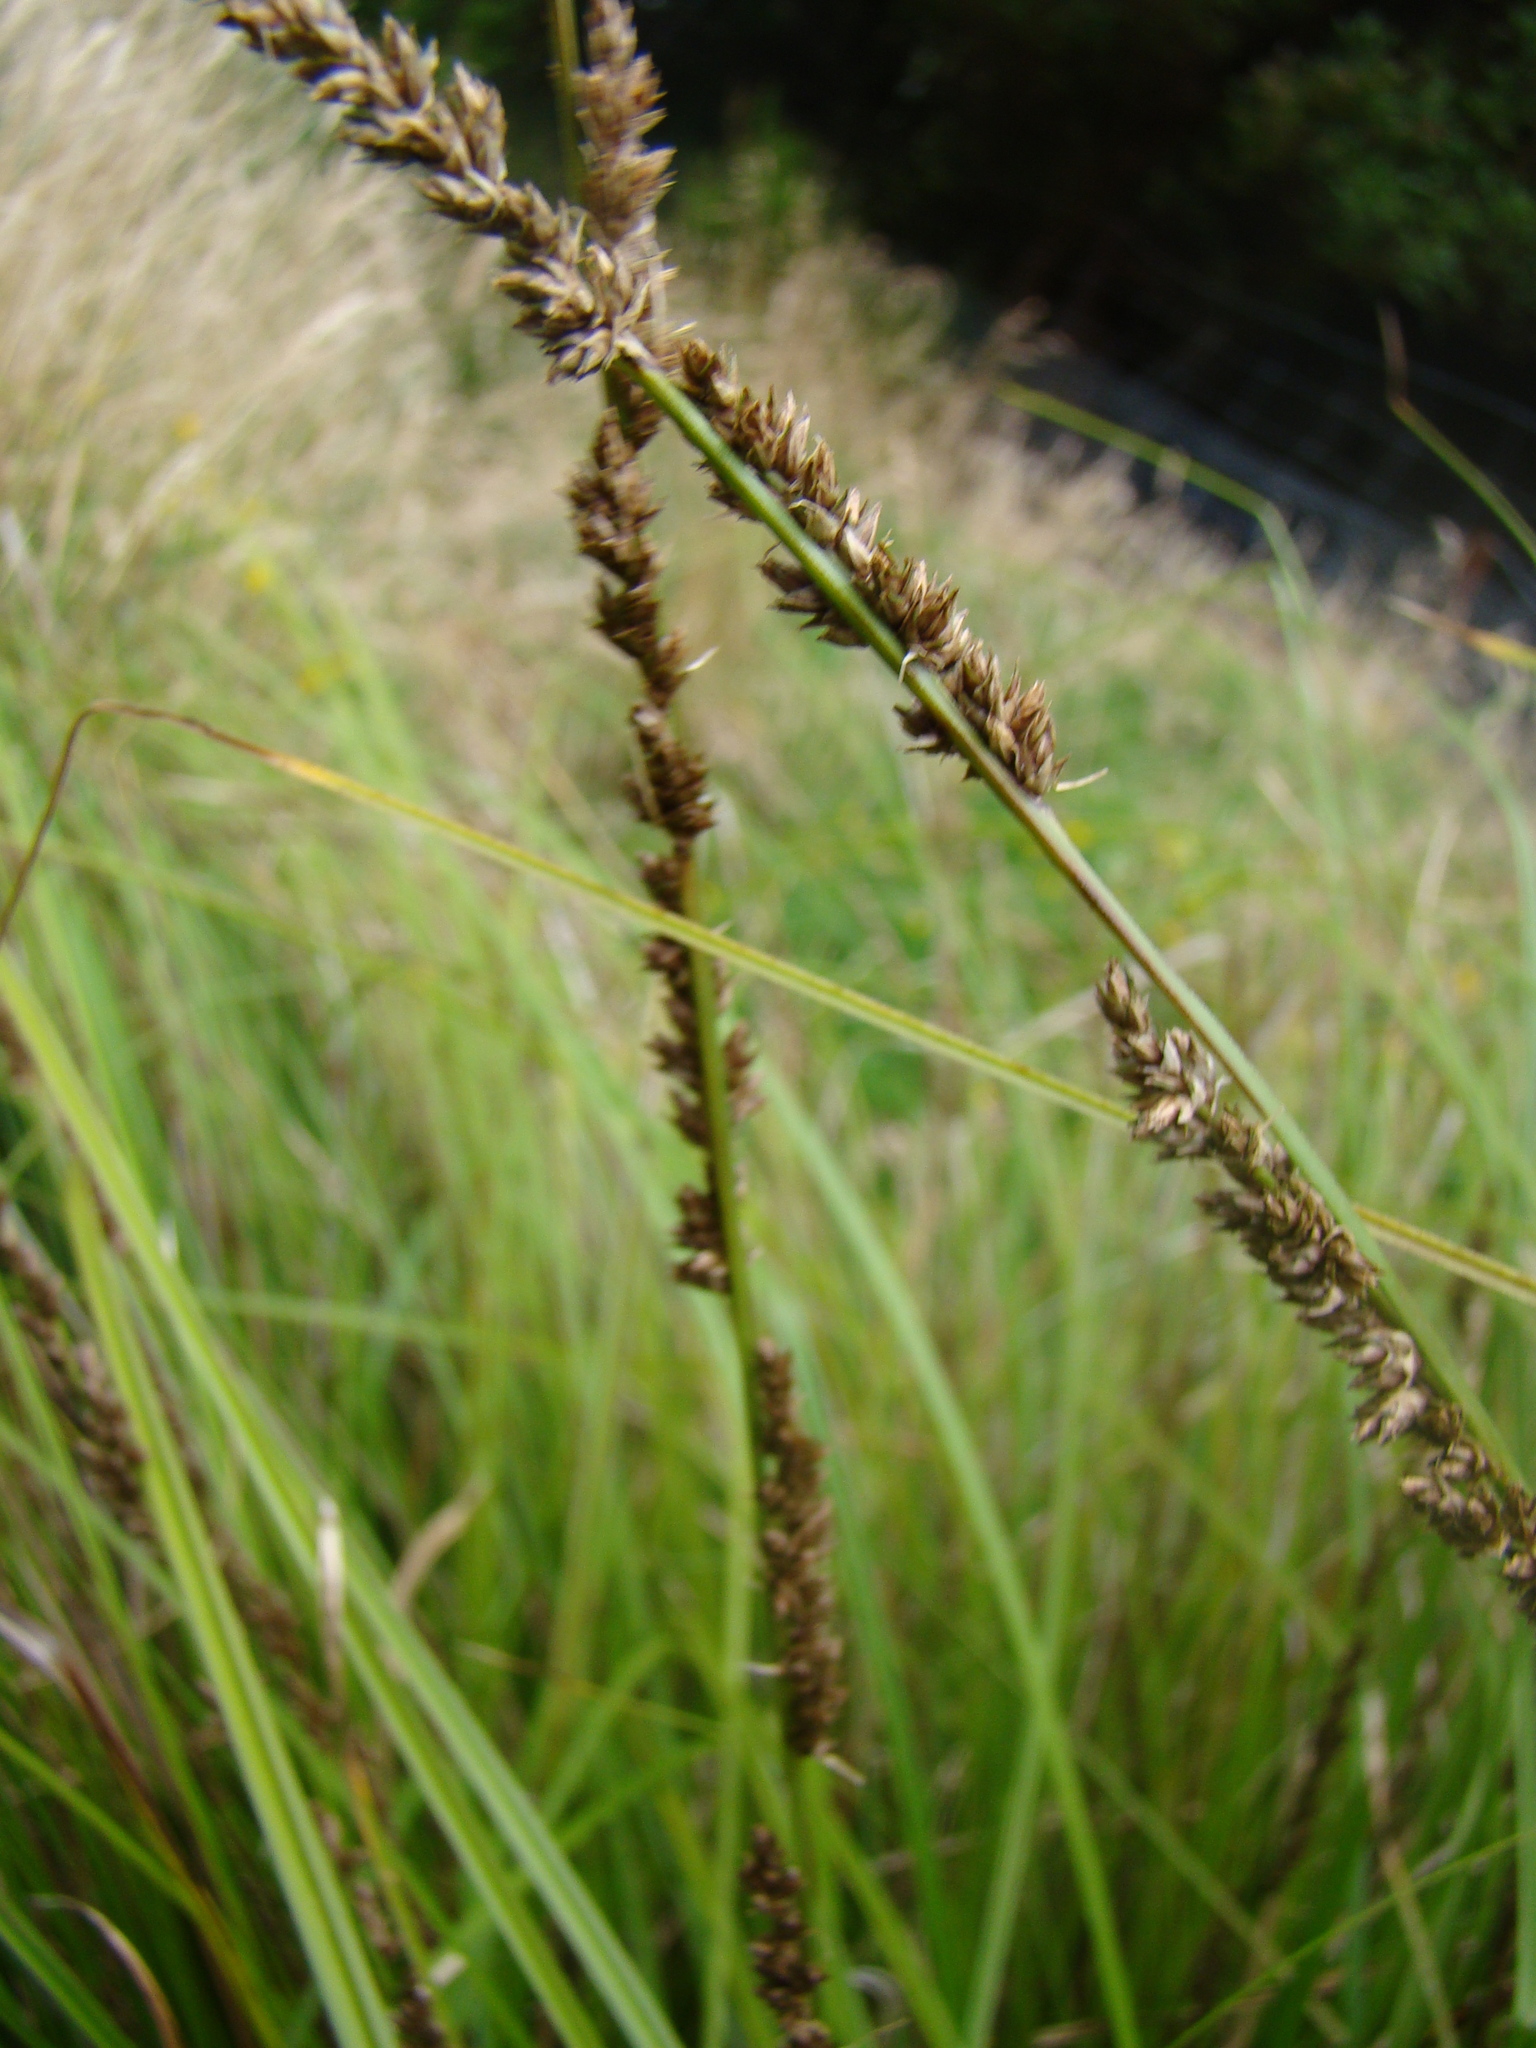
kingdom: Plantae
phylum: Tracheophyta
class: Liliopsida
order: Poales
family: Cyperaceae
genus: Carex
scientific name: Carex virgata
